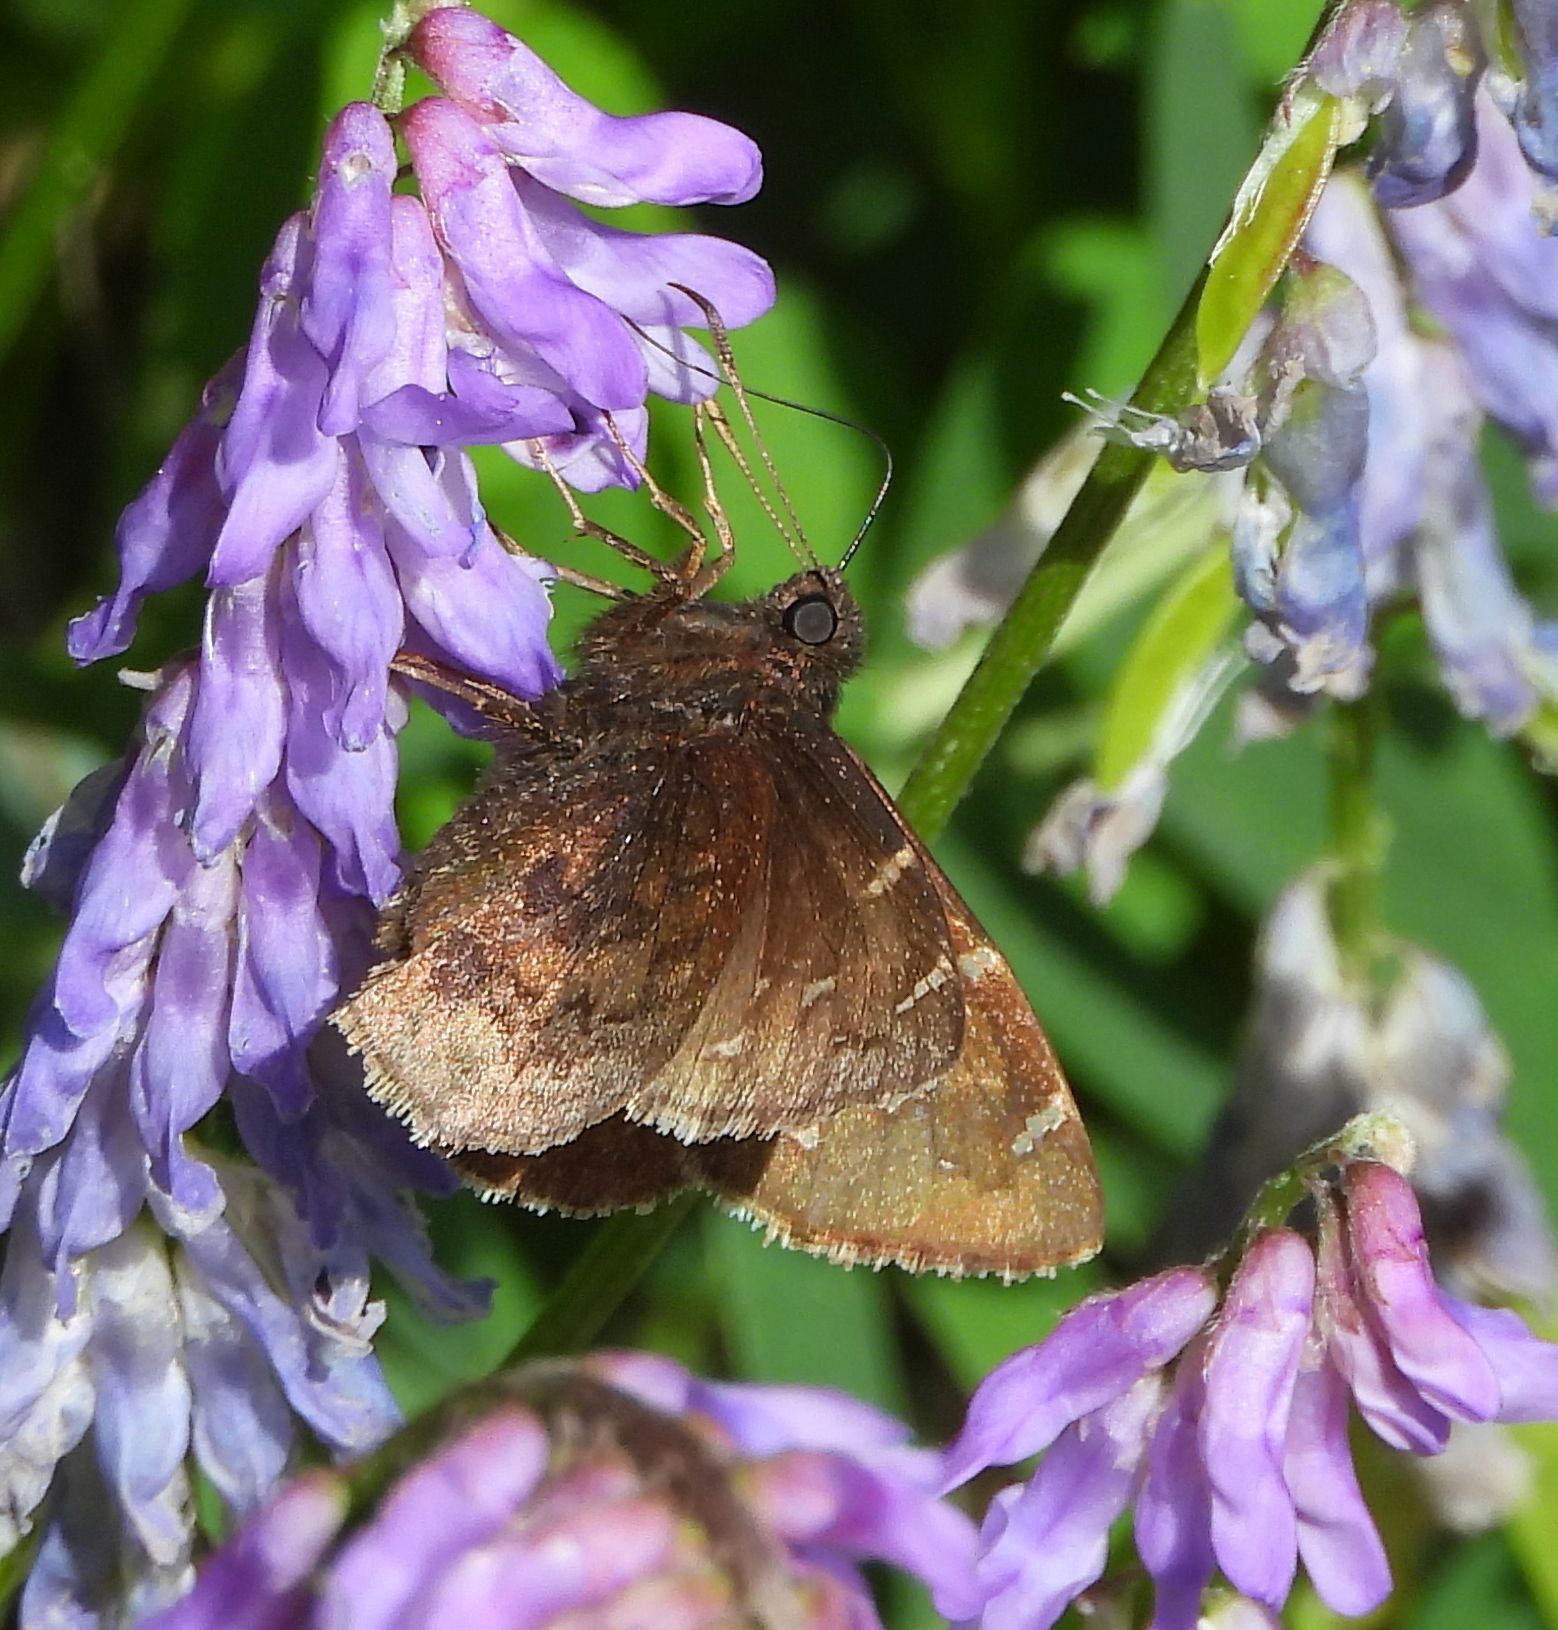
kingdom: Animalia
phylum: Arthropoda
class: Insecta
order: Lepidoptera
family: Hesperiidae
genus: Thorybes
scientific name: Thorybes pylades
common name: Northern cloudywing
